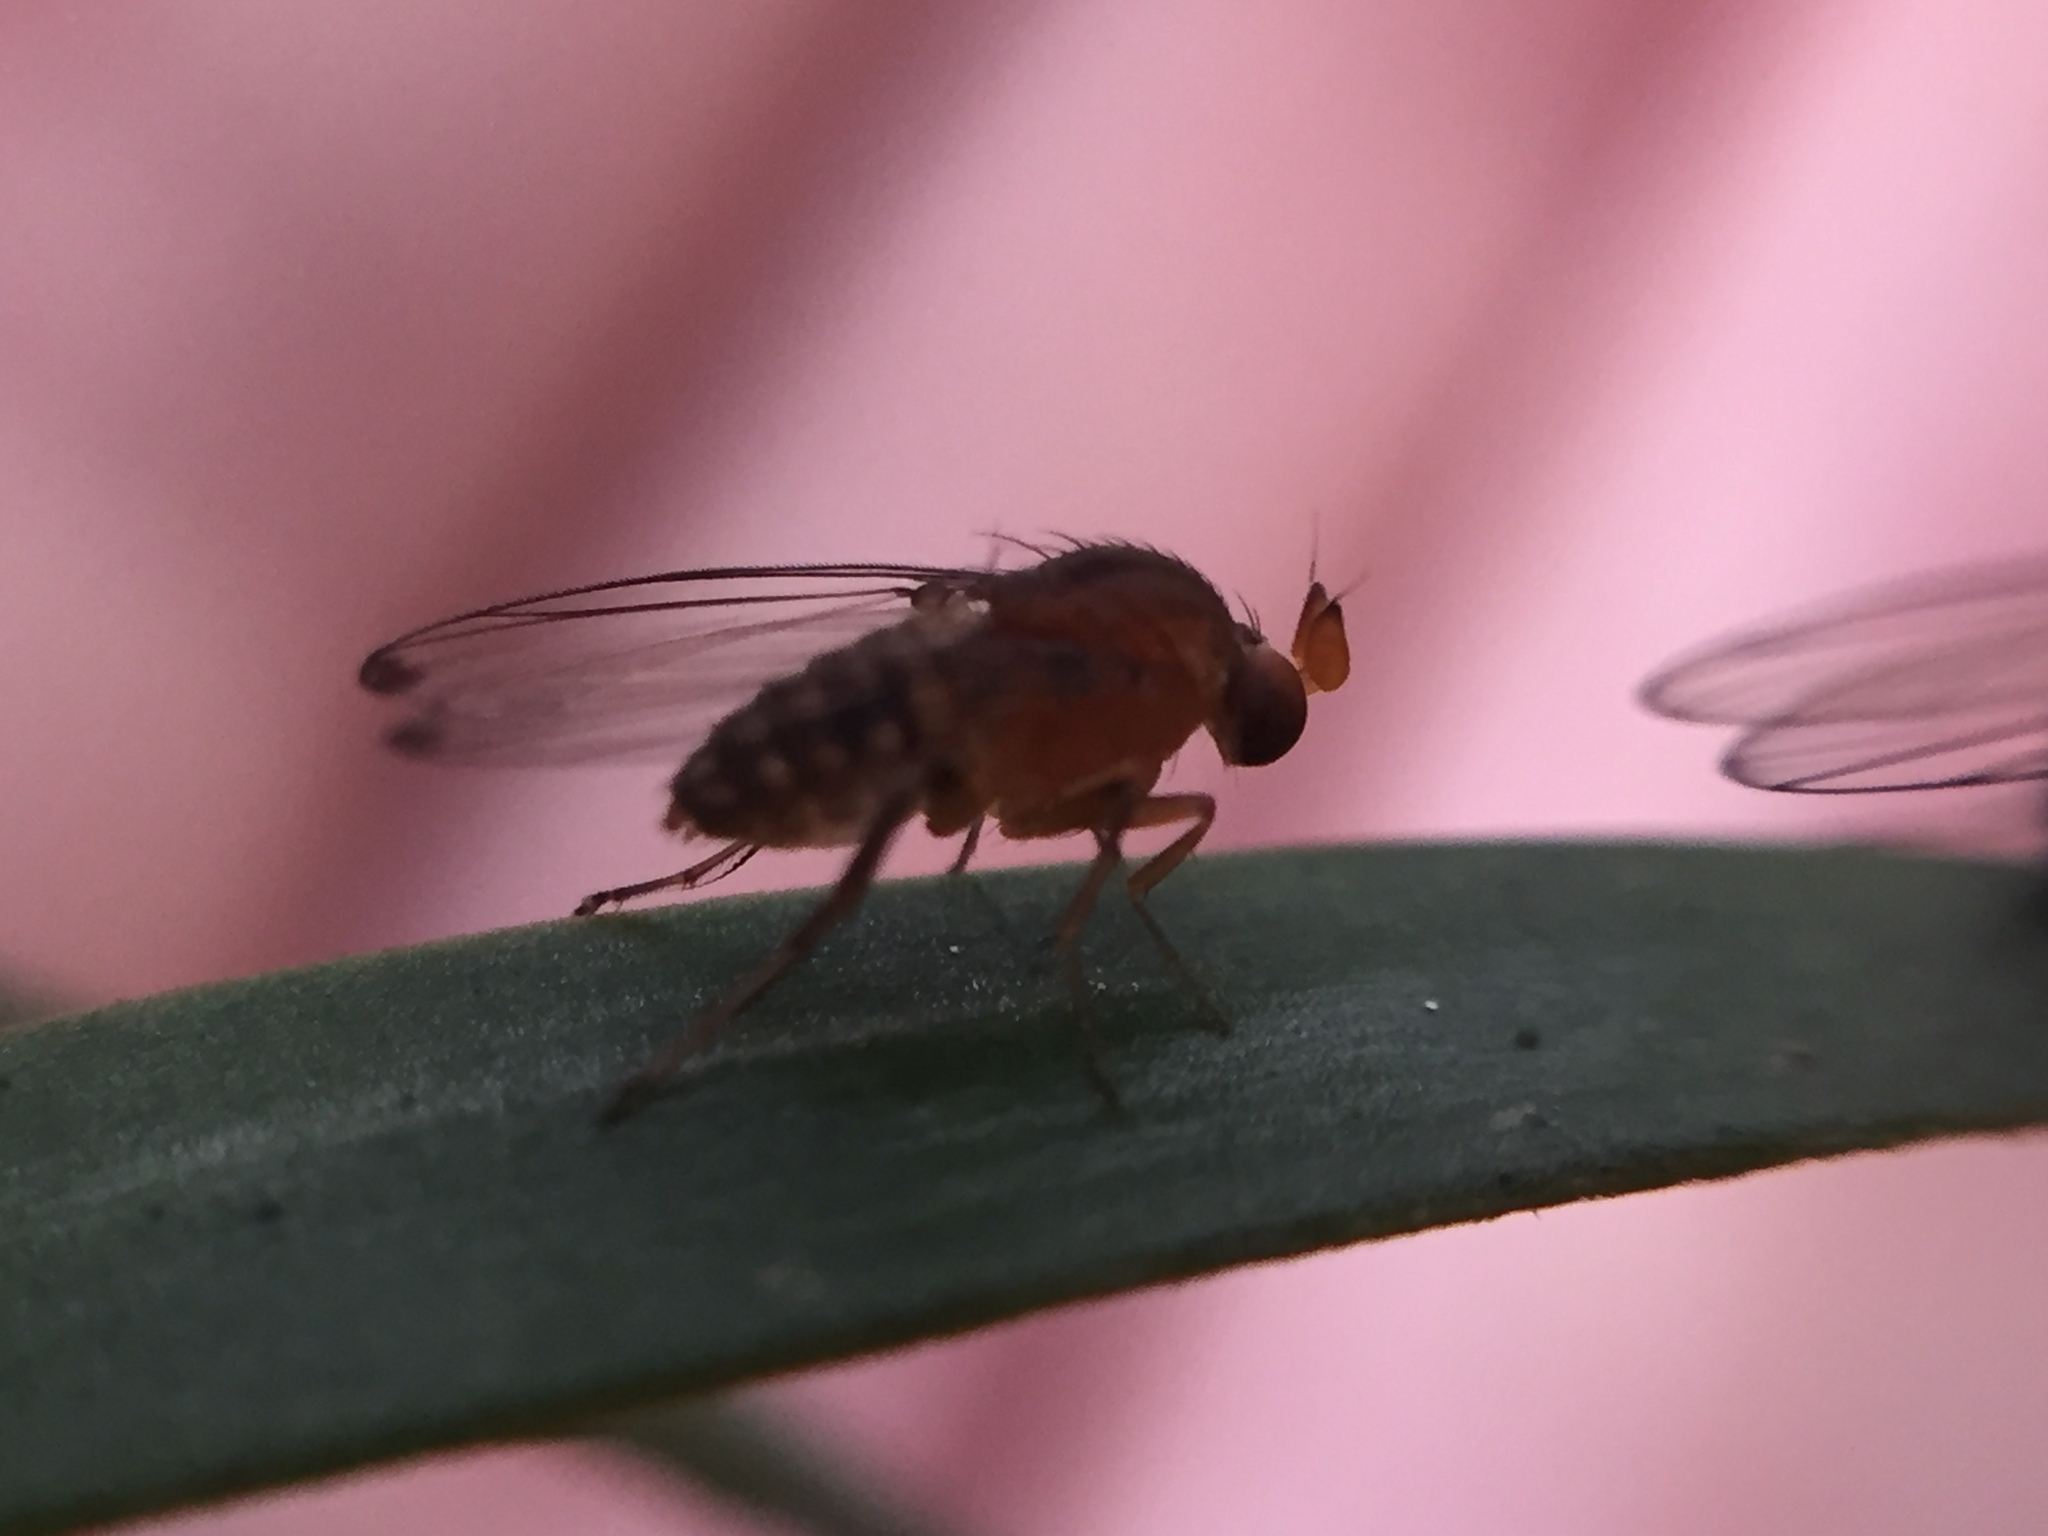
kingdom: Animalia
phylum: Arthropoda
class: Insecta
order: Diptera
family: Phoridae
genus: Sciadocera
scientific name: Sciadocera rufomaculata
